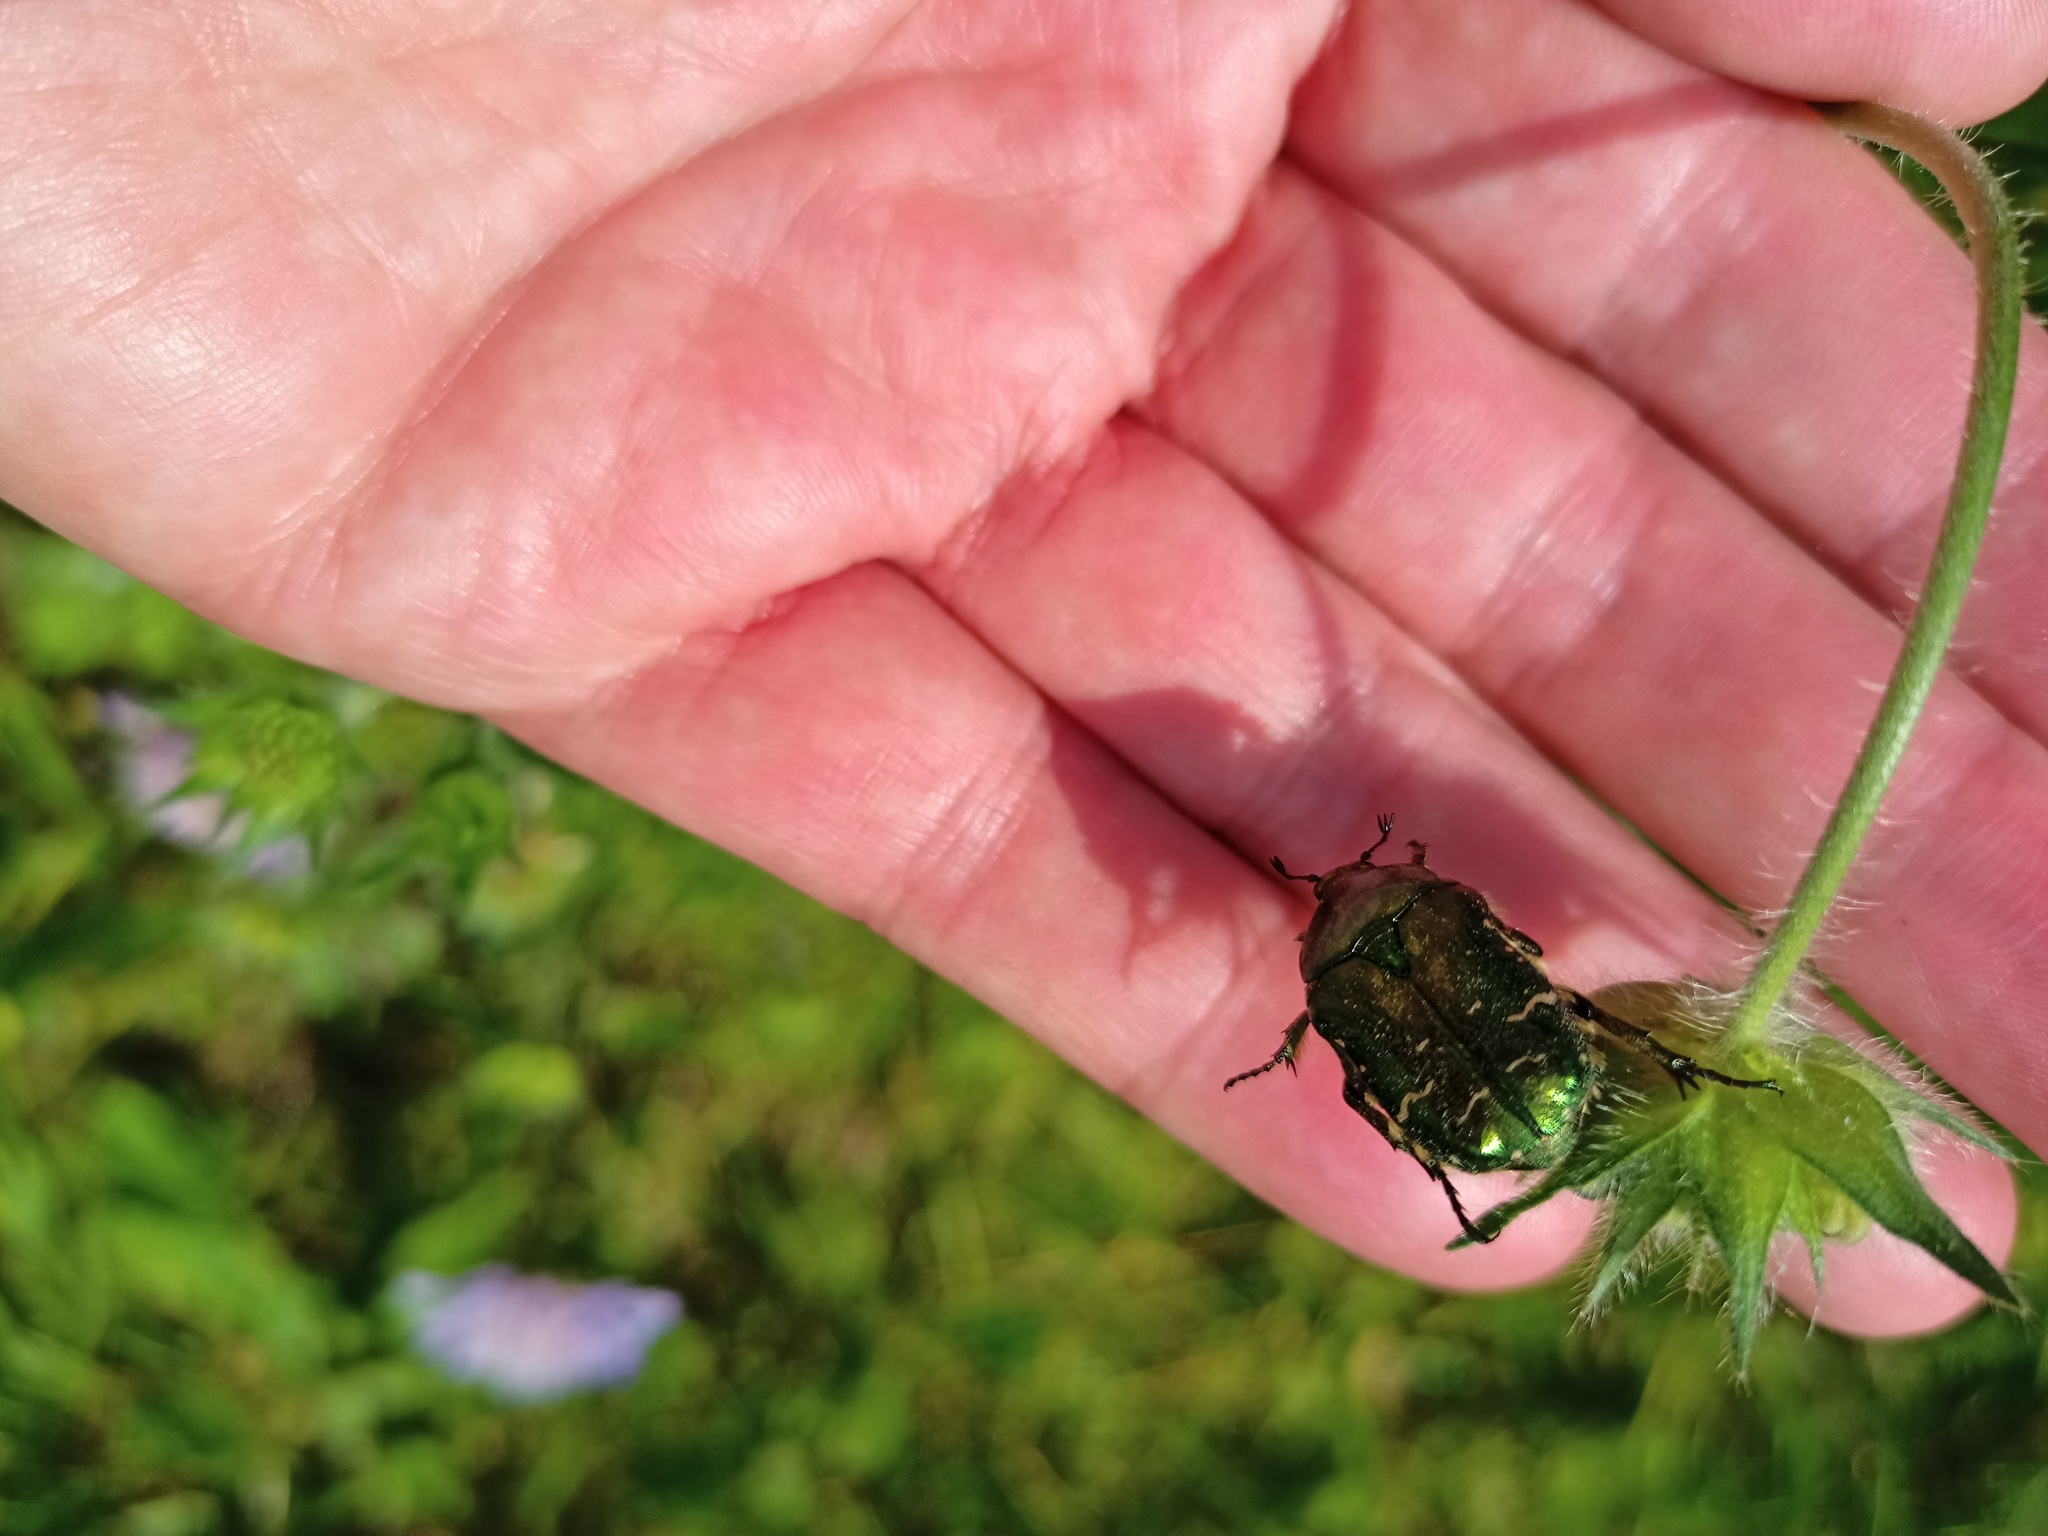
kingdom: Animalia
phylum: Arthropoda
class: Insecta
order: Coleoptera
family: Scarabaeidae
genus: Cetonia
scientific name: Cetonia aurata
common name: Rose chafer
